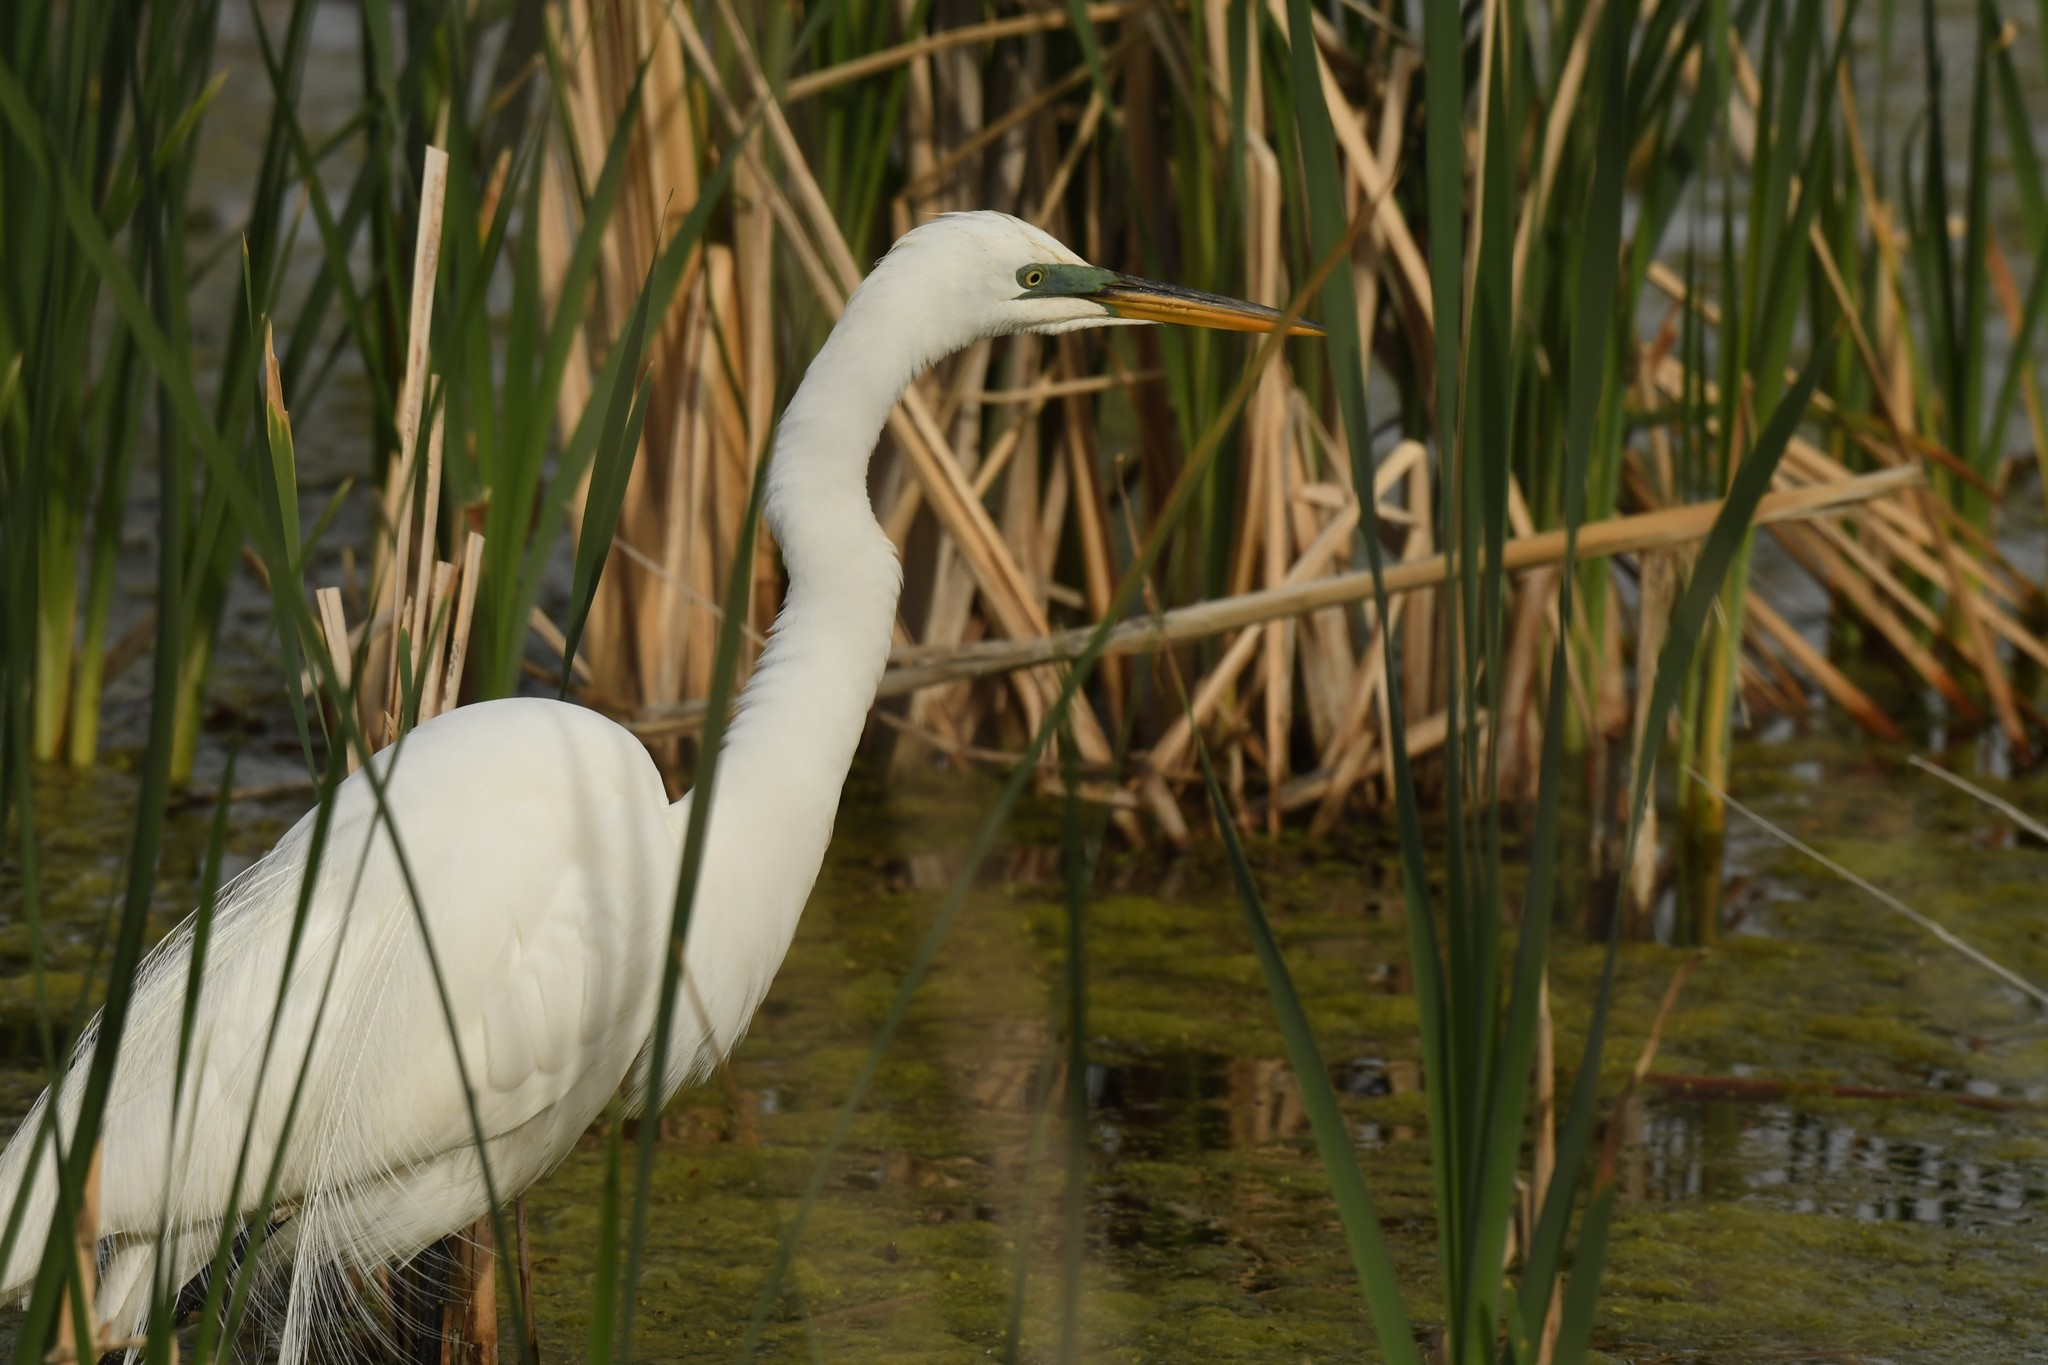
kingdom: Animalia
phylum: Chordata
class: Aves
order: Pelecaniformes
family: Ardeidae
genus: Ardea
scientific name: Ardea alba
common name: Great egret
